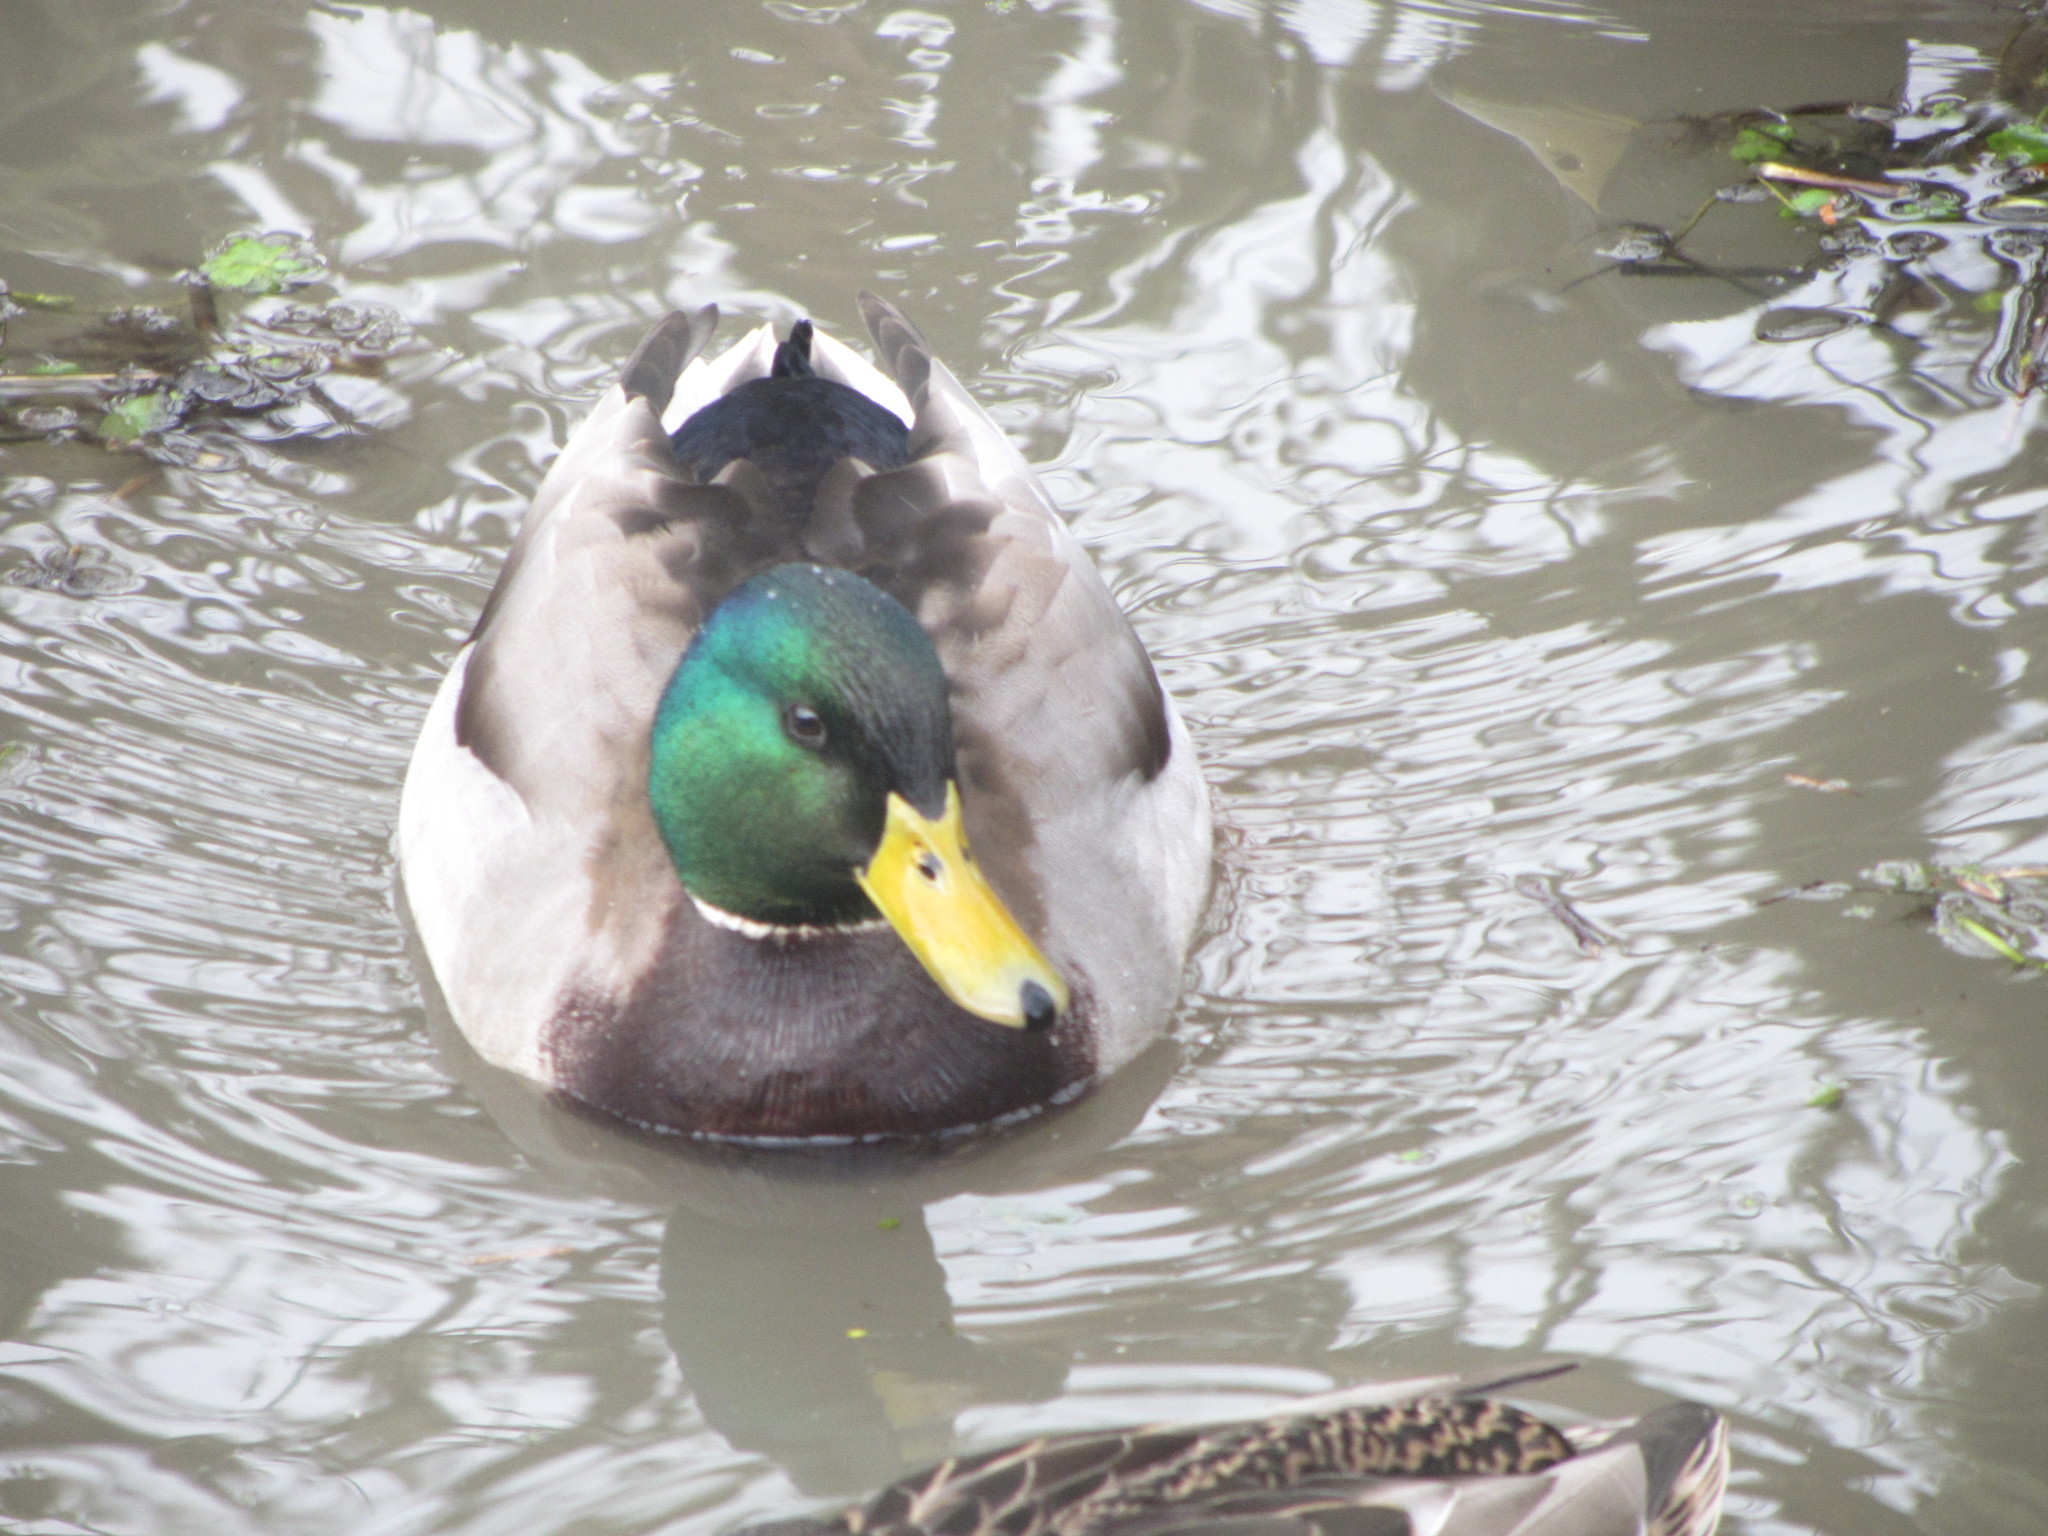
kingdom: Animalia
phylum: Chordata
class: Aves
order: Anseriformes
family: Anatidae
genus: Anas
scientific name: Anas platyrhynchos
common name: Mallard
